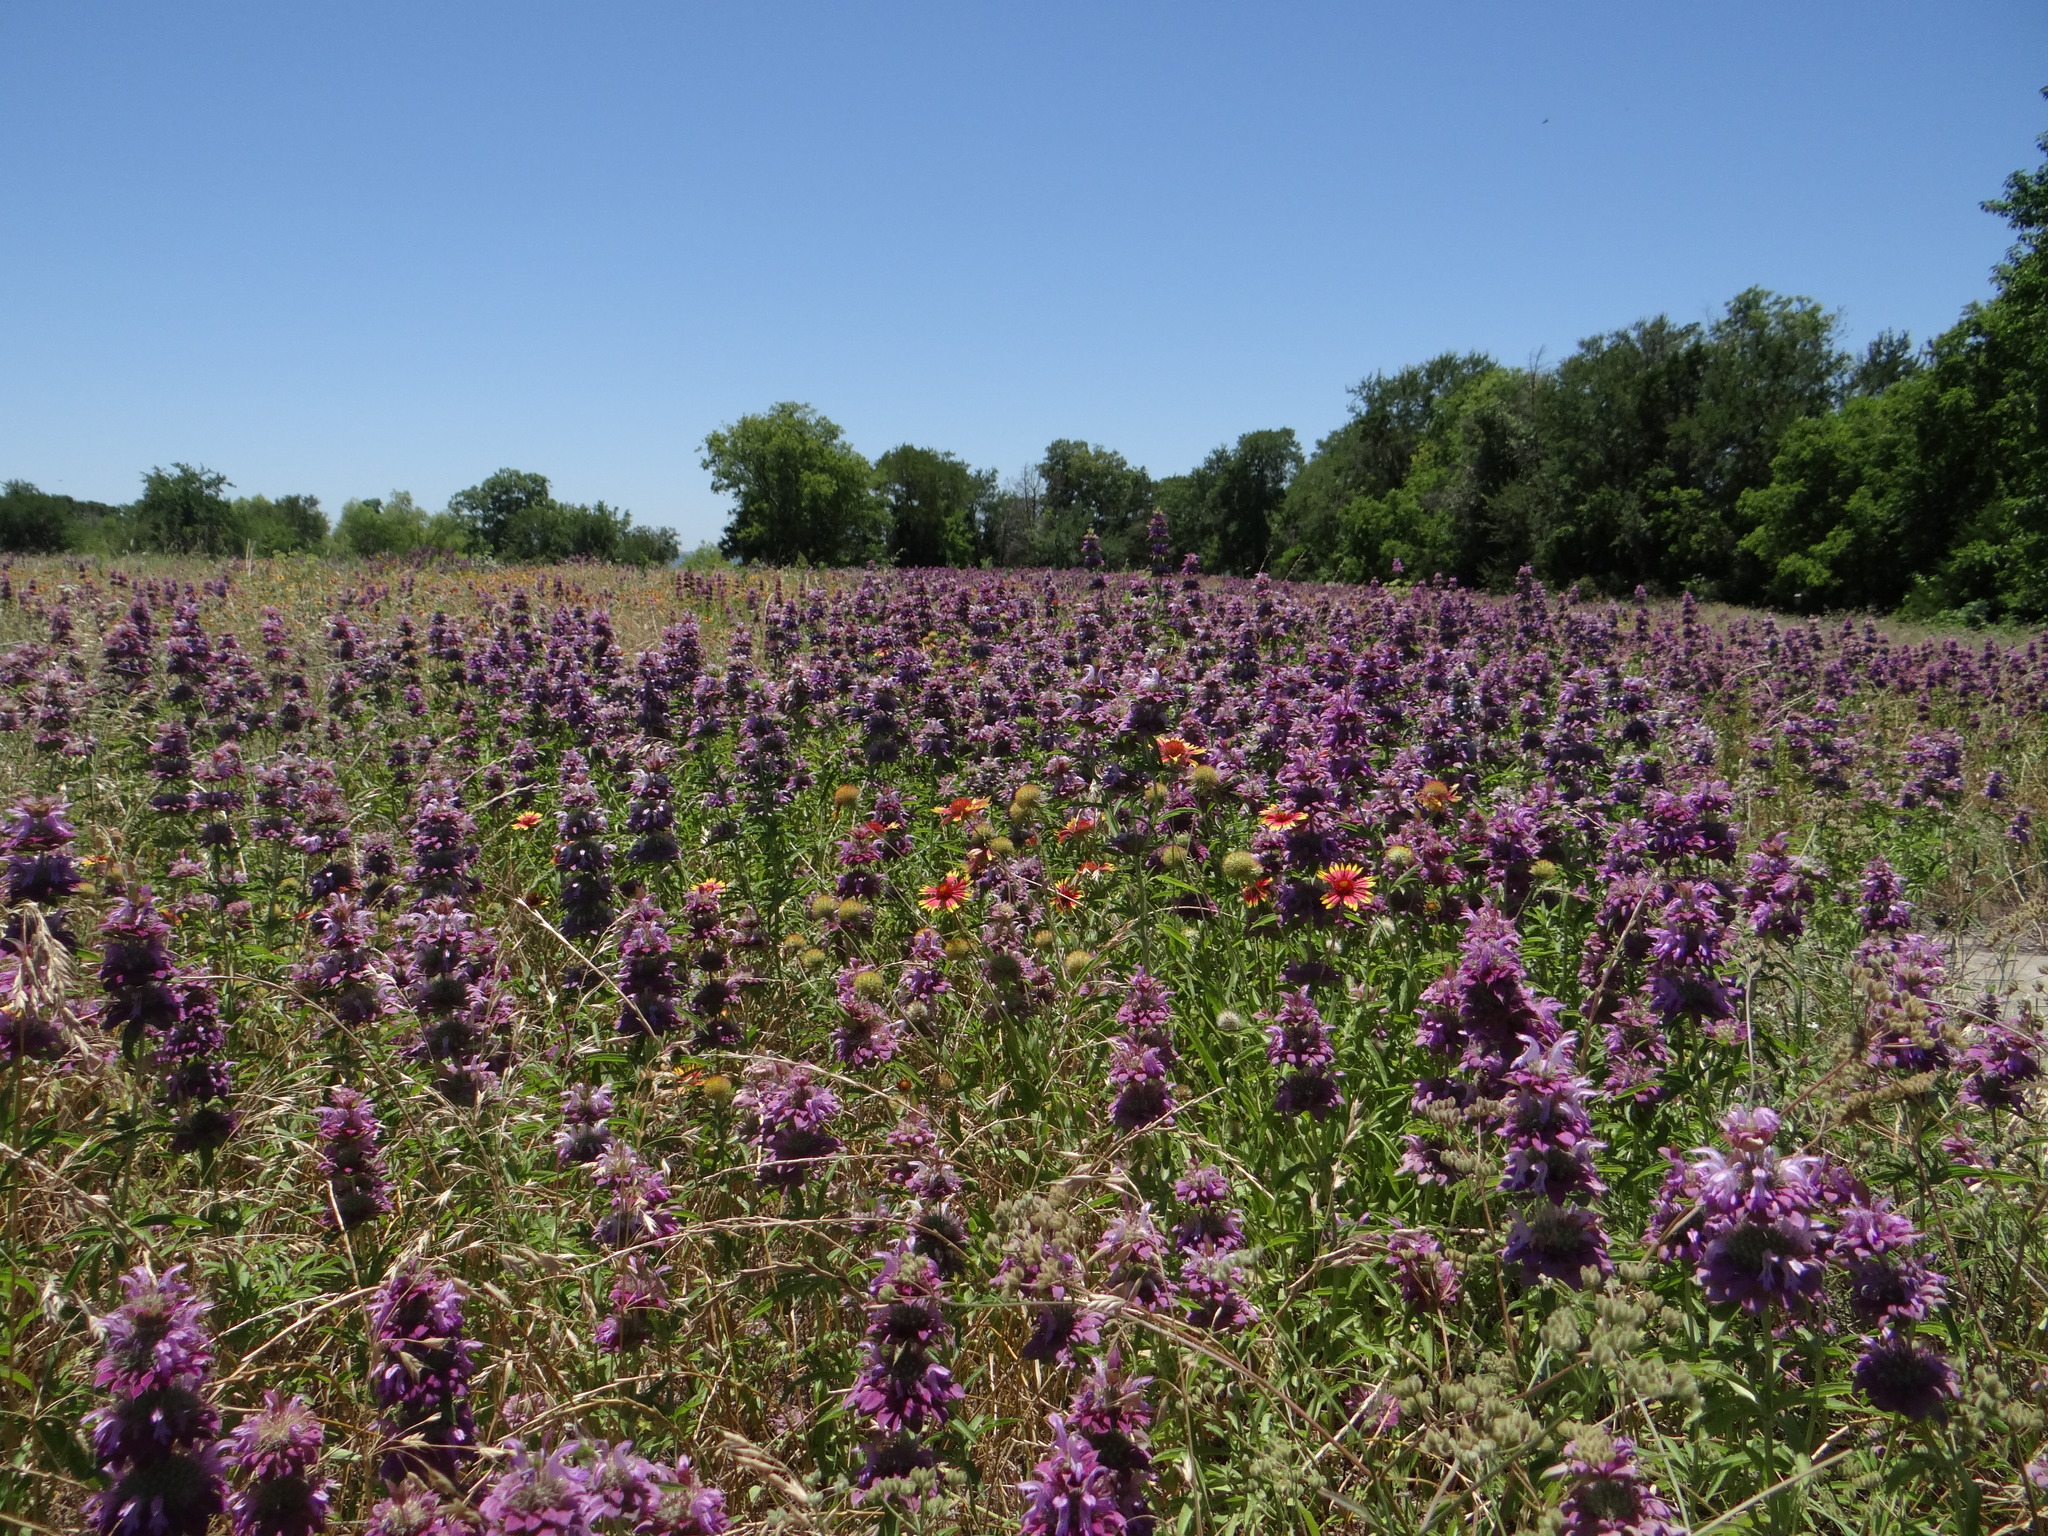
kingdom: Plantae
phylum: Tracheophyta
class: Magnoliopsida
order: Lamiales
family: Lamiaceae
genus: Monarda
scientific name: Monarda citriodora
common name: Lemon beebalm
